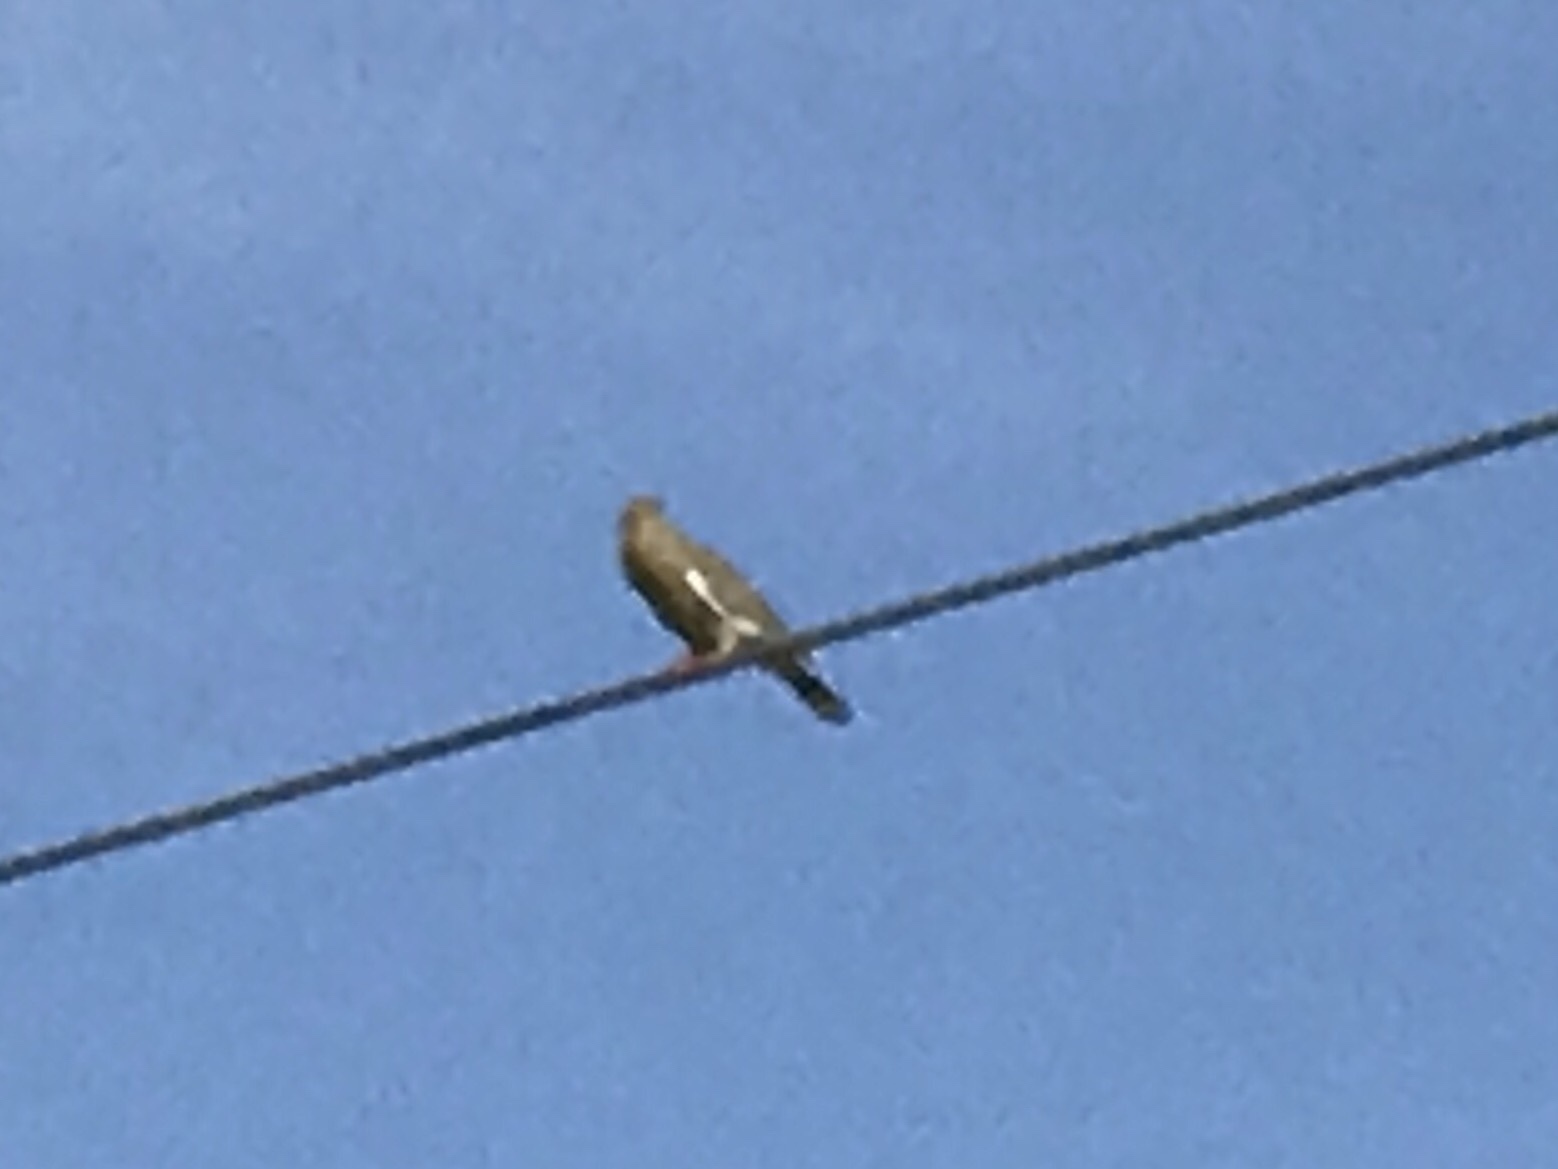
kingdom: Animalia
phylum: Chordata
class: Aves
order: Columbiformes
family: Columbidae
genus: Zenaida
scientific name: Zenaida asiatica
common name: White-winged dove
